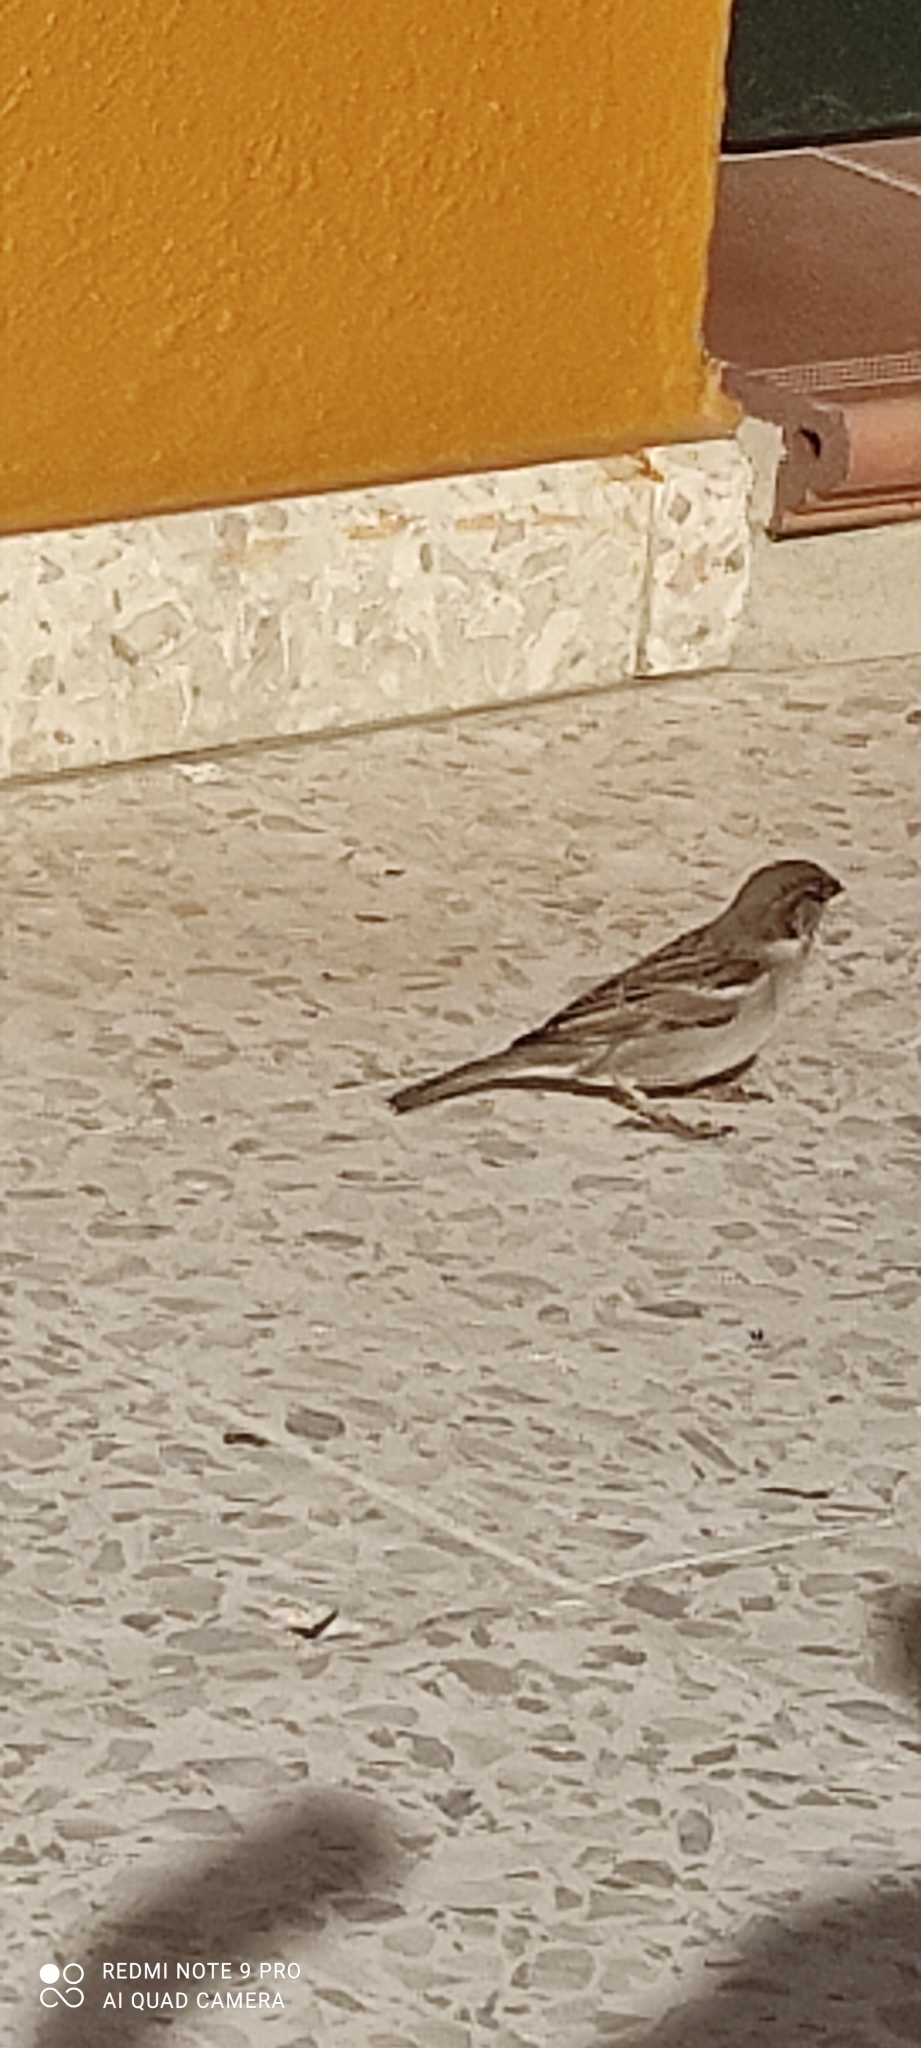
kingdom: Animalia
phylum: Chordata
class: Aves
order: Passeriformes
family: Passeridae
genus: Passer
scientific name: Passer domesticus
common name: House sparrow
